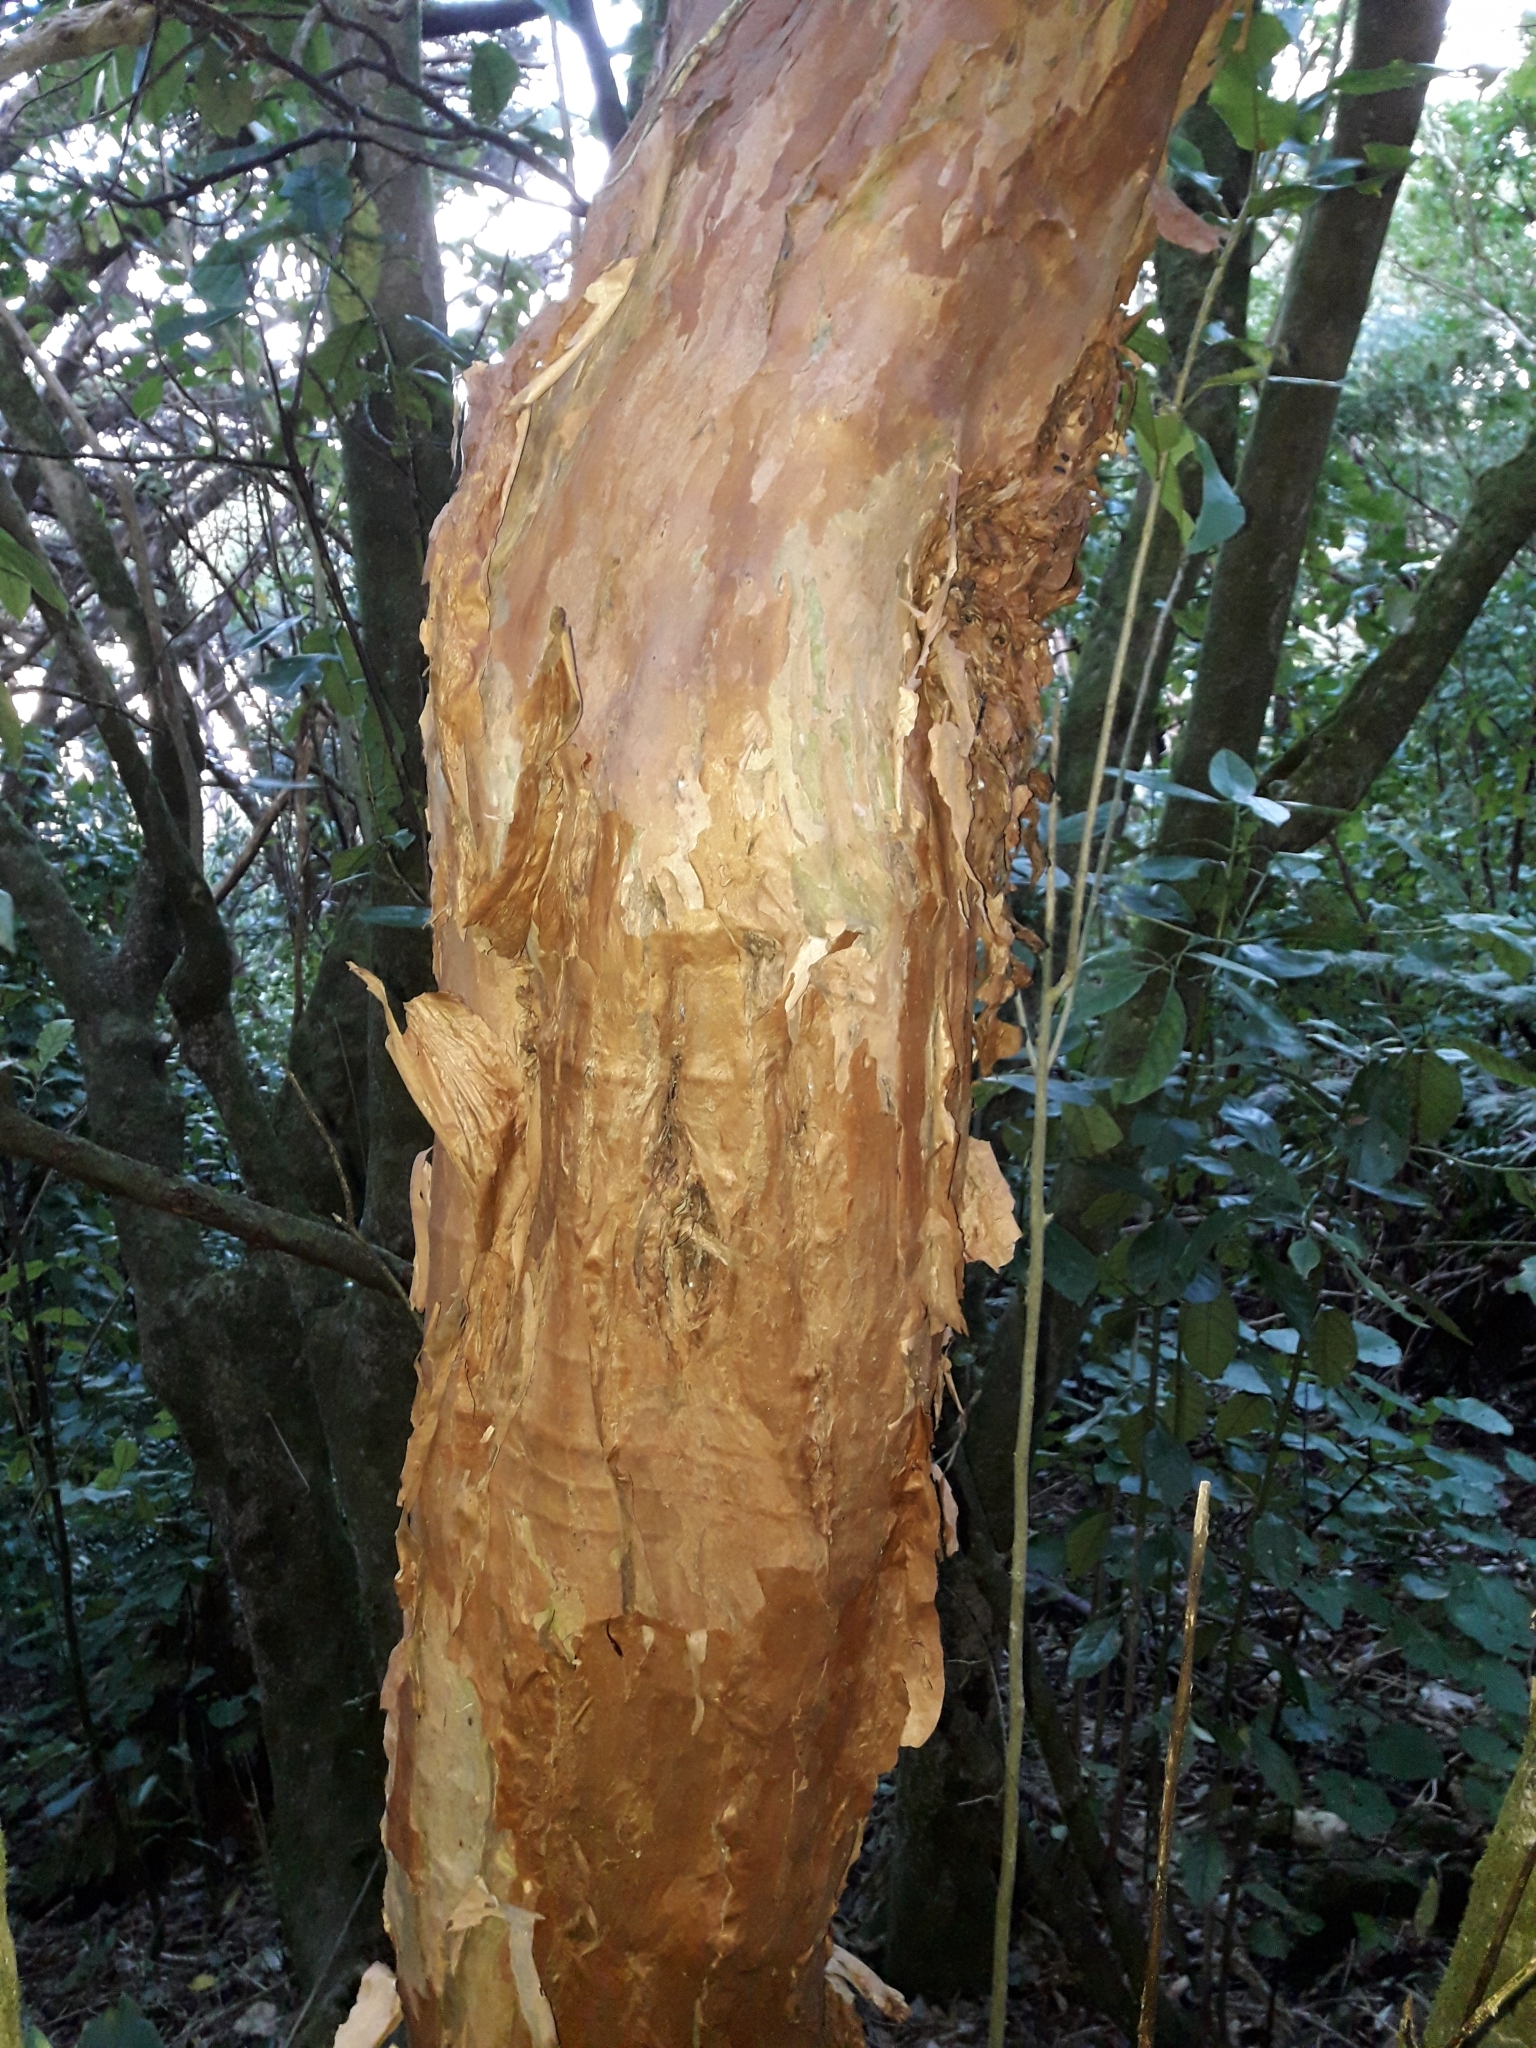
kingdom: Plantae
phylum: Tracheophyta
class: Magnoliopsida
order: Myrtales
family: Onagraceae
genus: Fuchsia
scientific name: Fuchsia excorticata
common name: Tree fuchsia
